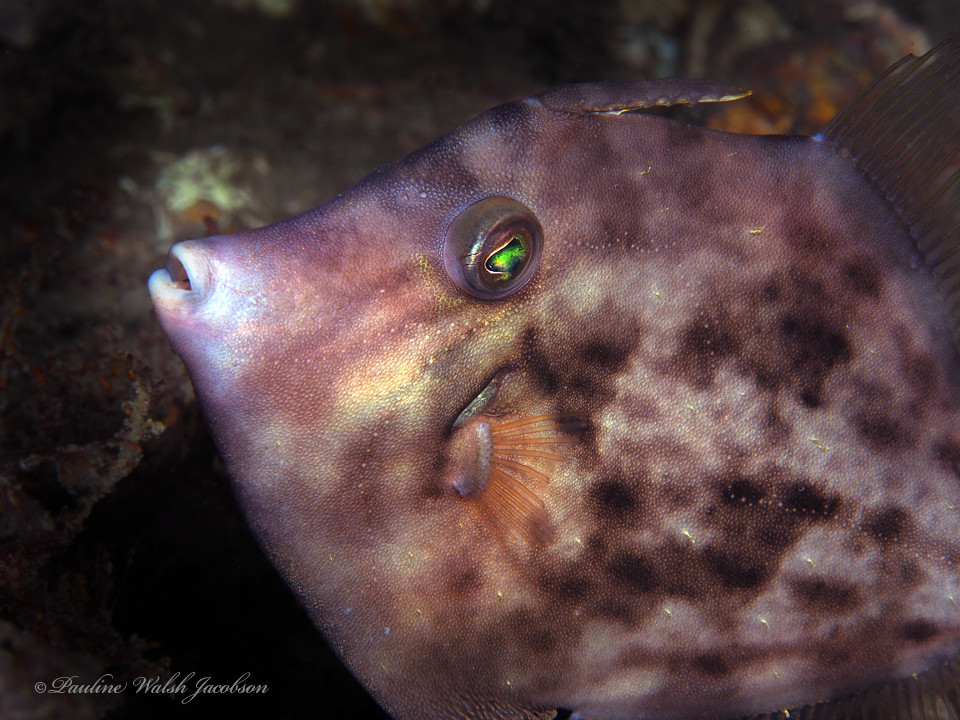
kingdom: Animalia
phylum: Chordata
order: Tetraodontiformes
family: Monacanthidae
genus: Stephanolepis
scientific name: Stephanolepis hispidus
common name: Planehead filefish
